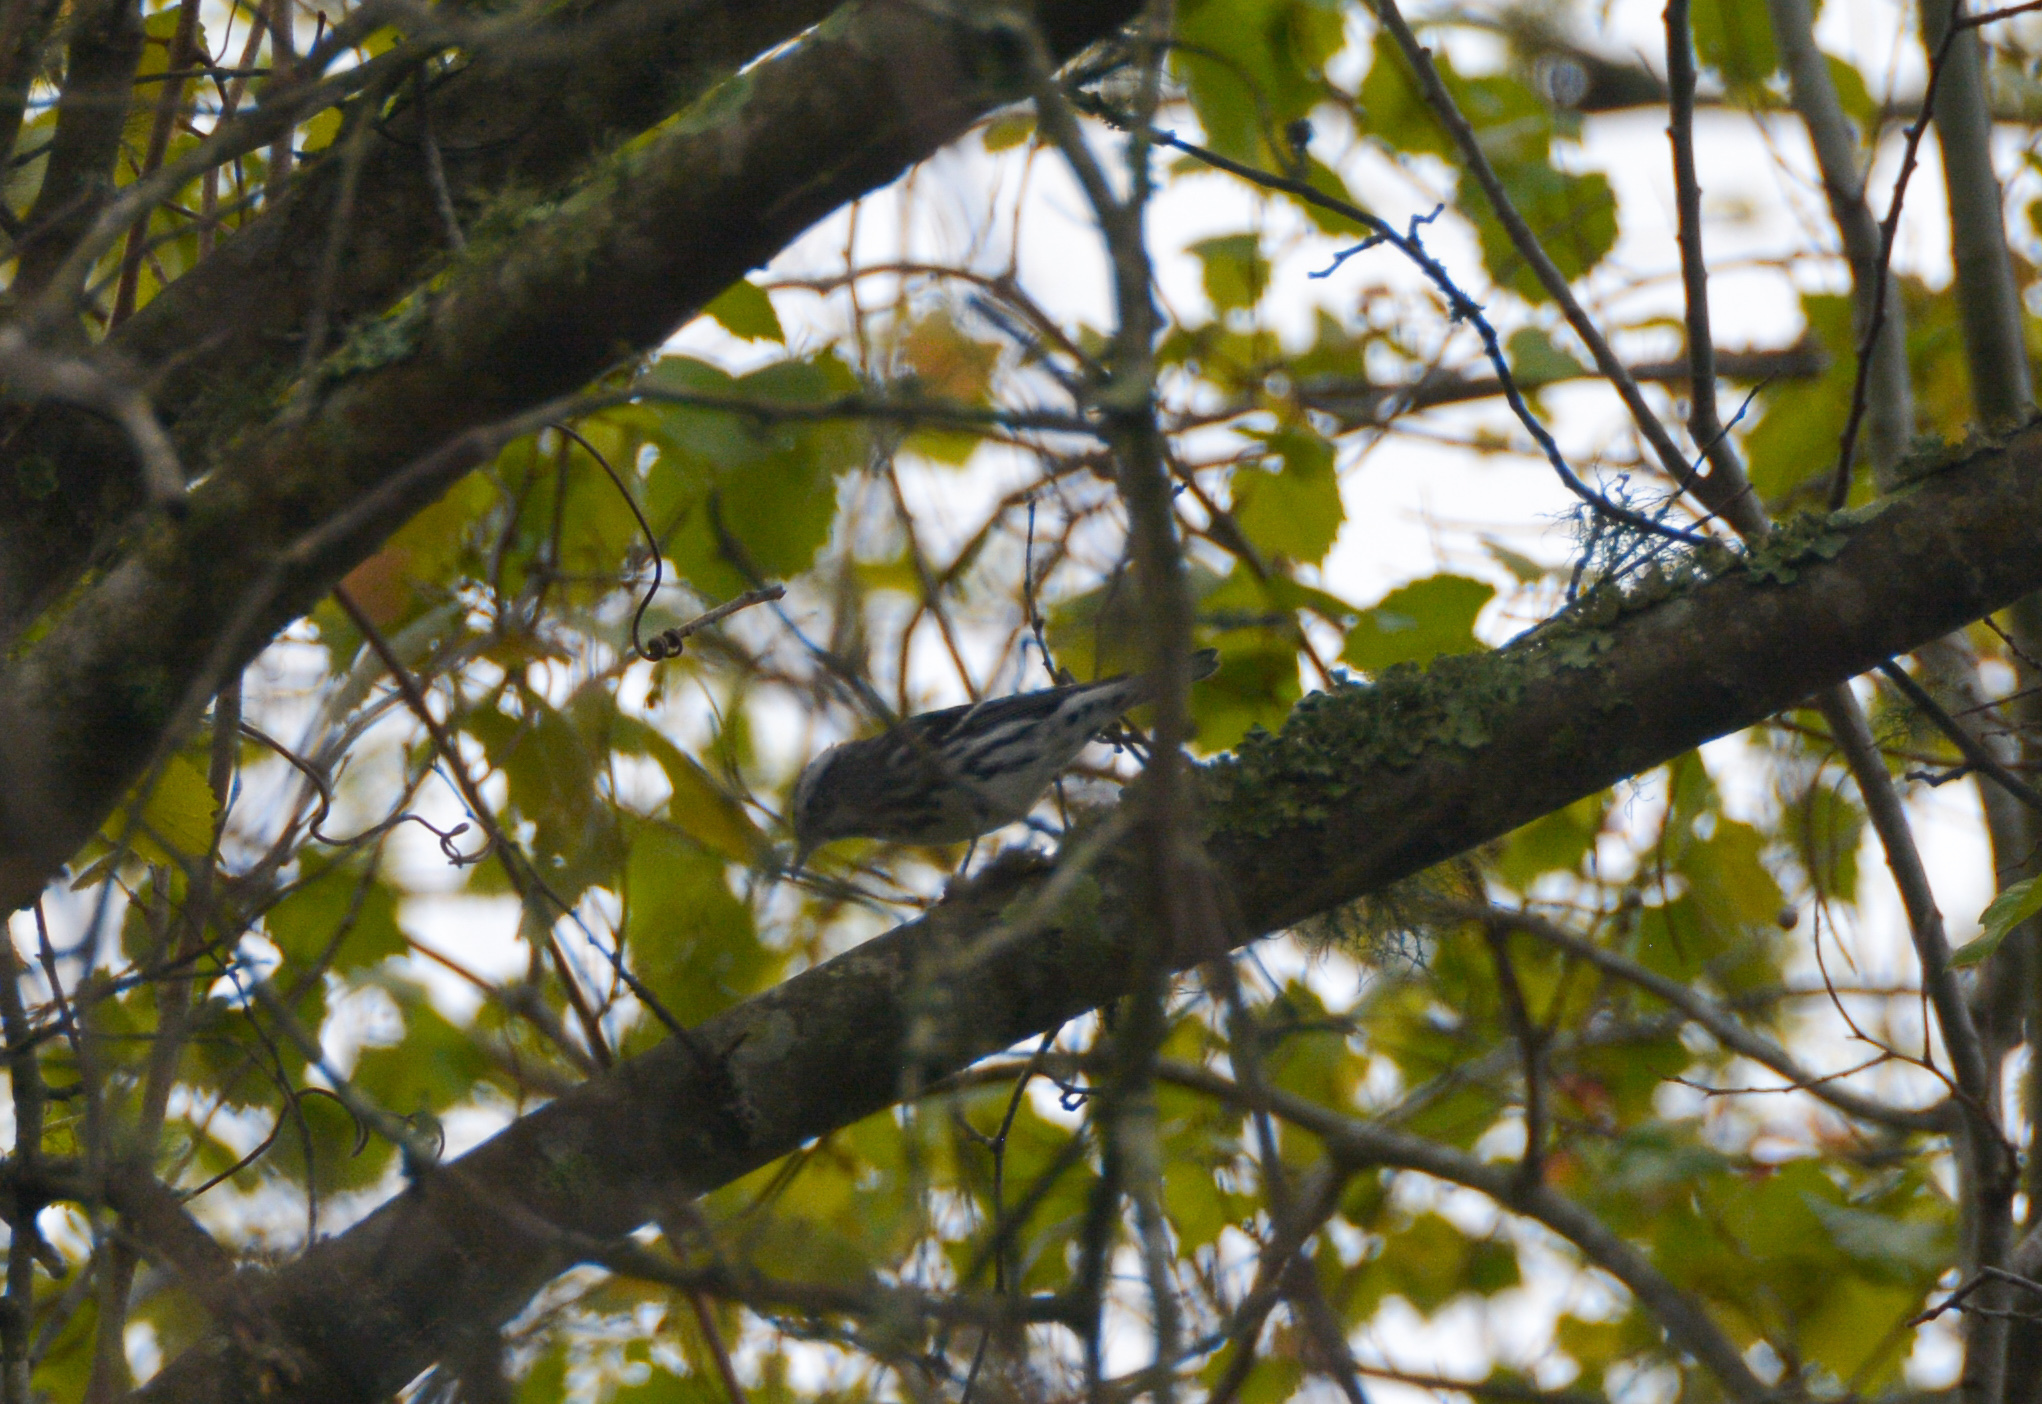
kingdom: Animalia
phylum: Chordata
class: Aves
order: Passeriformes
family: Parulidae
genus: Mniotilta
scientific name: Mniotilta varia
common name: Black-and-white warbler
